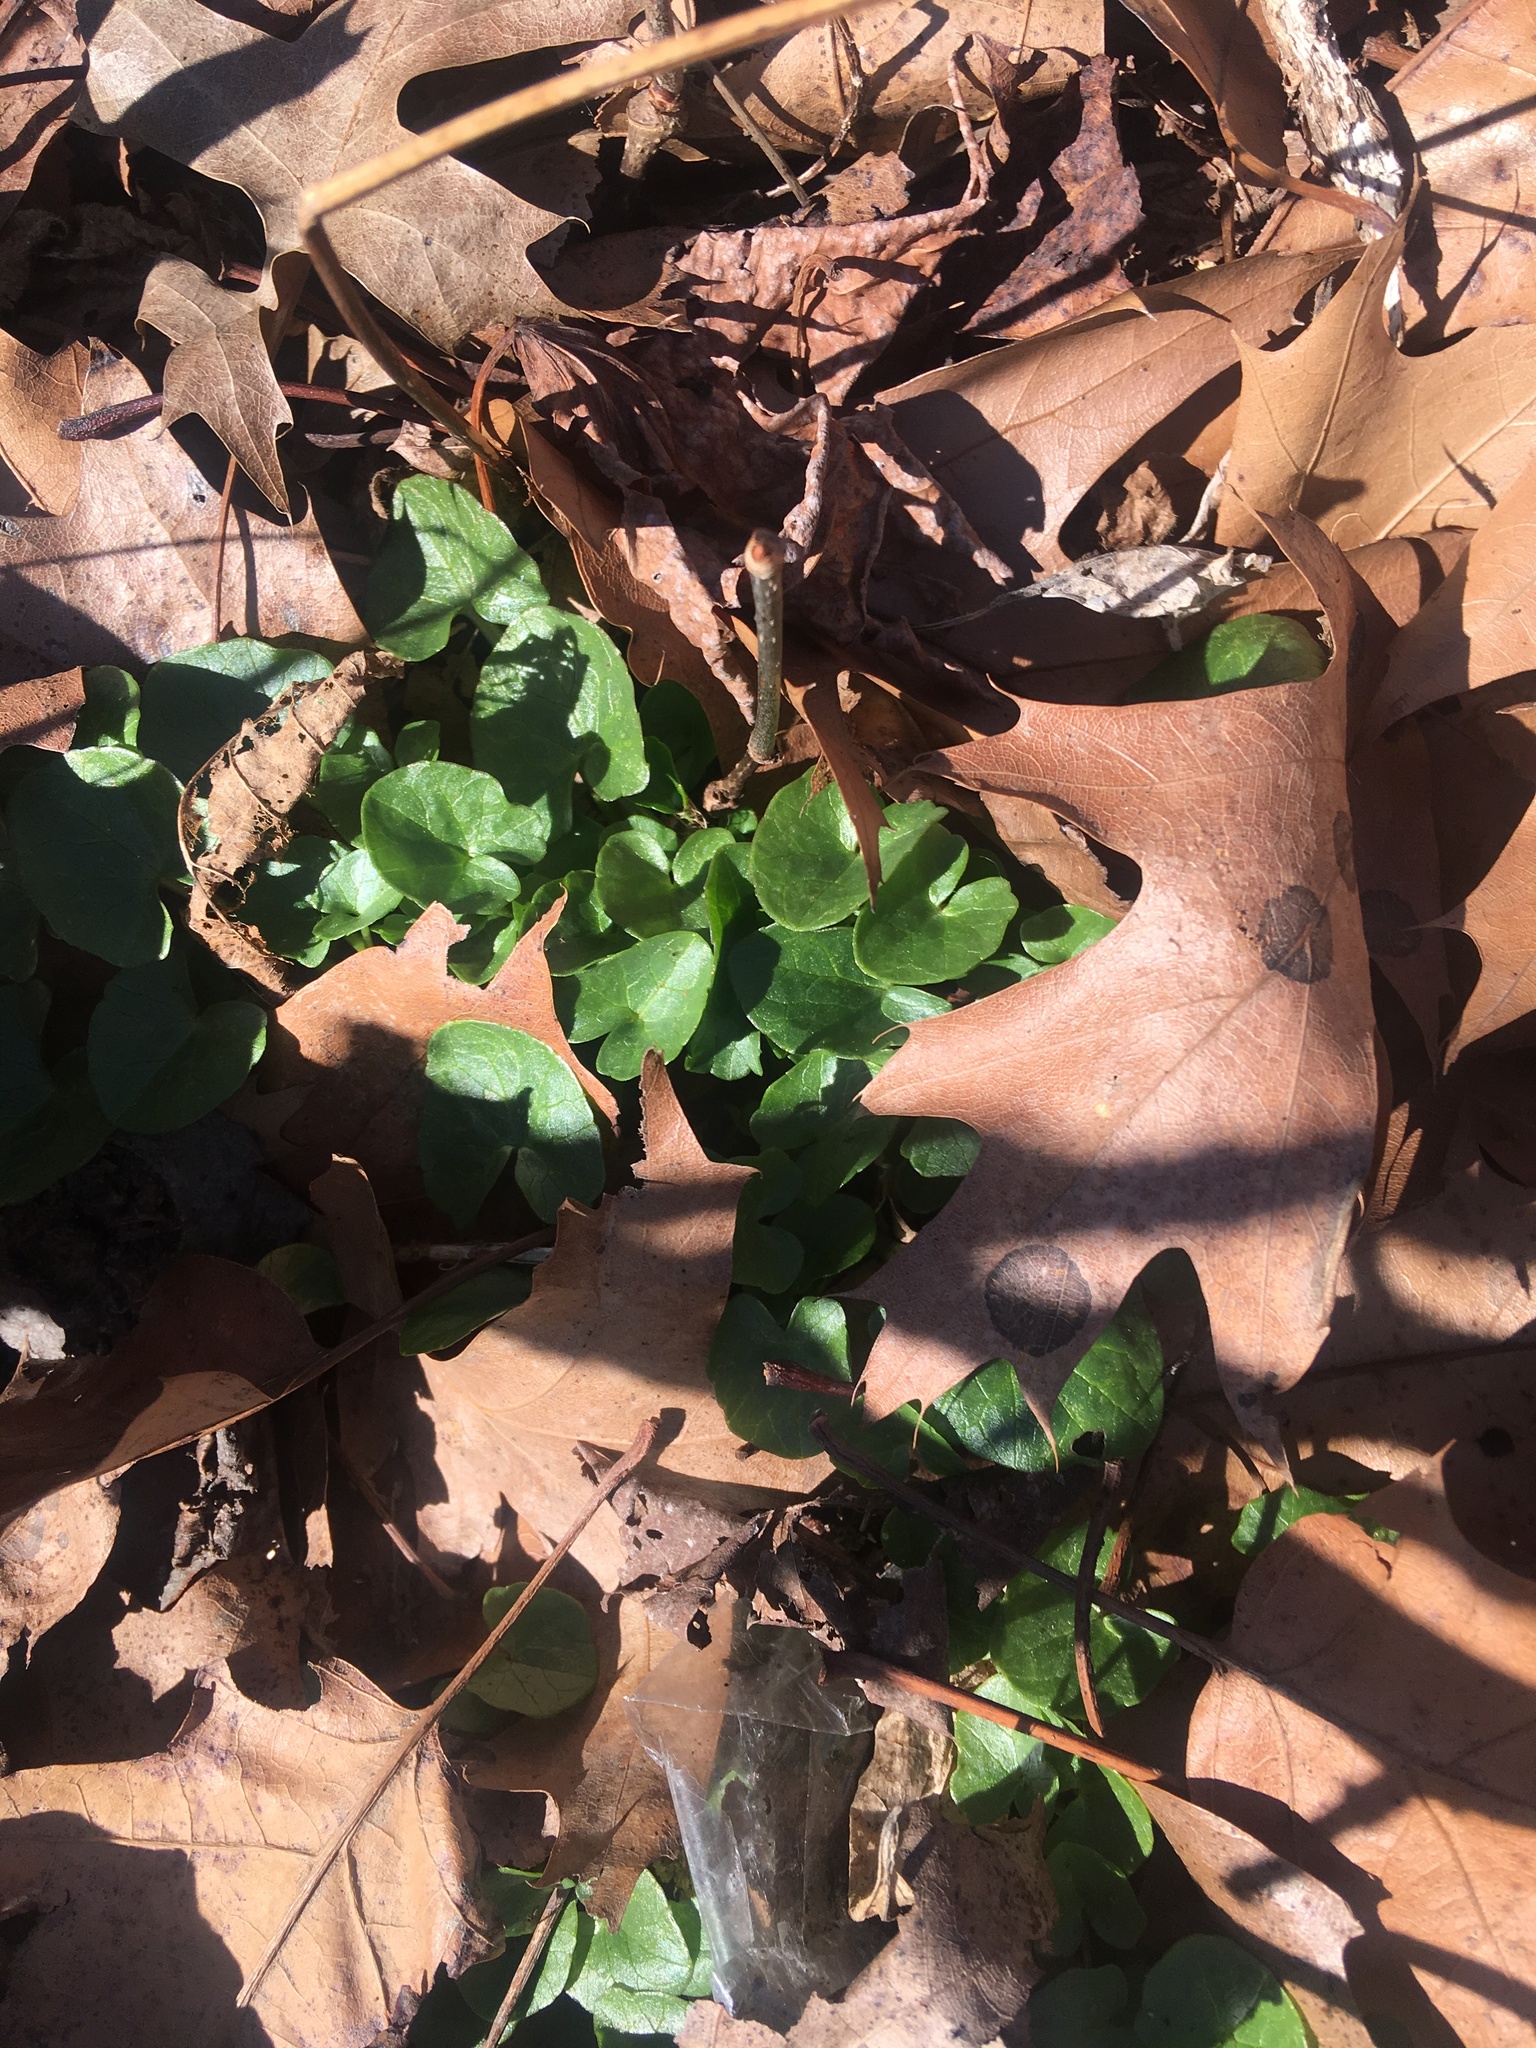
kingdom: Plantae
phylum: Tracheophyta
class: Magnoliopsida
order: Ranunculales
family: Ranunculaceae
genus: Ficaria
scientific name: Ficaria verna
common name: Lesser celandine
